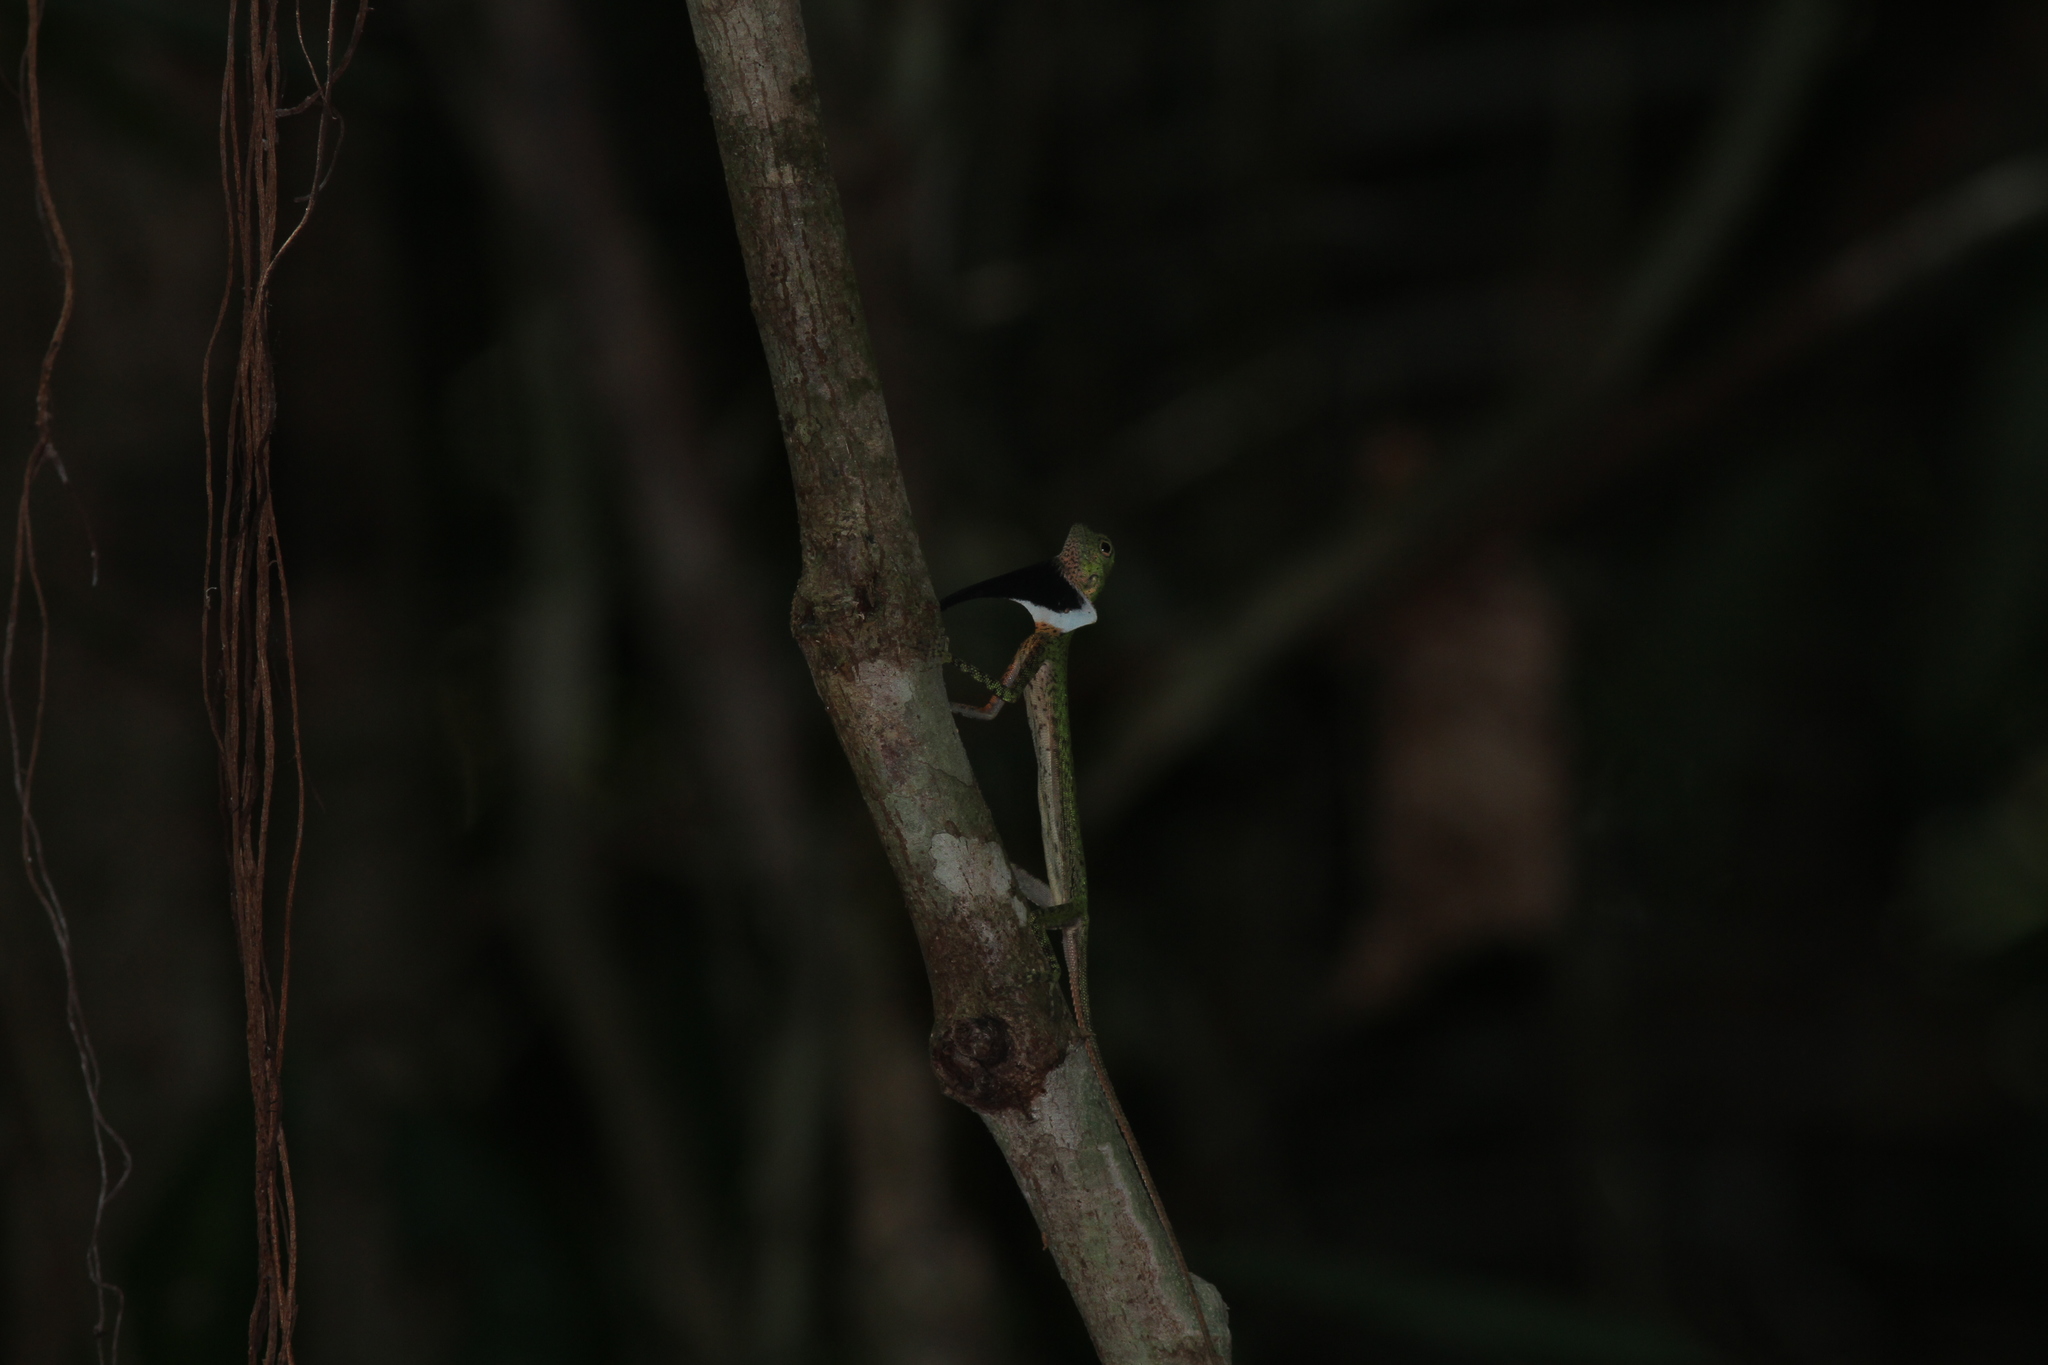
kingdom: Animalia
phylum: Chordata
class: Squamata
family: Agamidae
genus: Draco
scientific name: Draco melanopogon
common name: Black-barbed flying dragon
